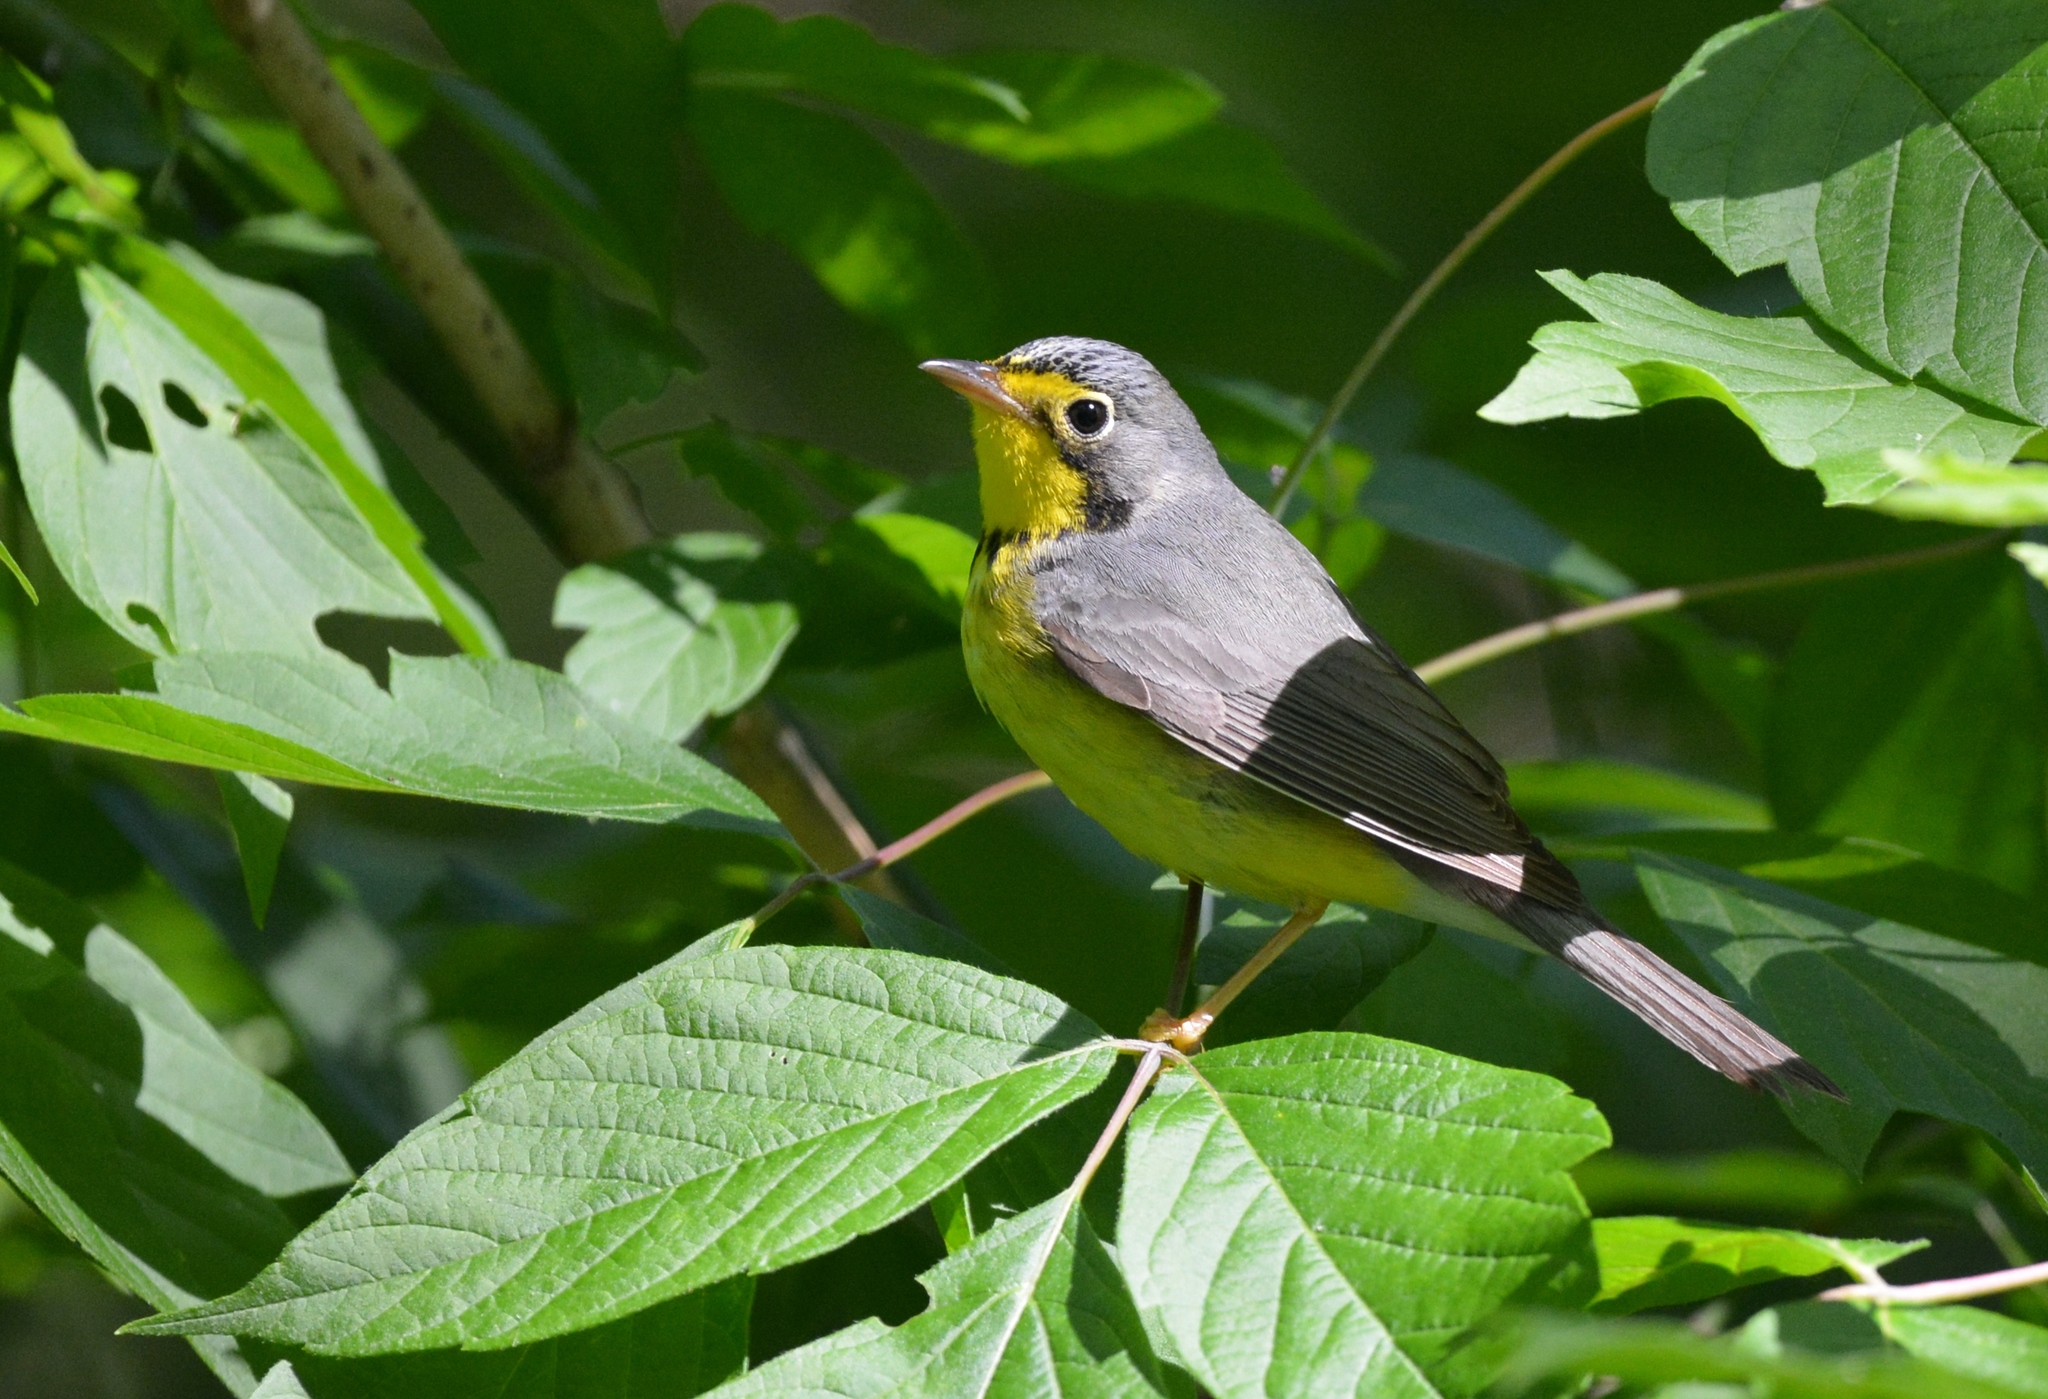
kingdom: Animalia
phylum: Chordata
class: Aves
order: Passeriformes
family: Parulidae
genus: Cardellina
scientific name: Cardellina canadensis
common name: Canada warbler
